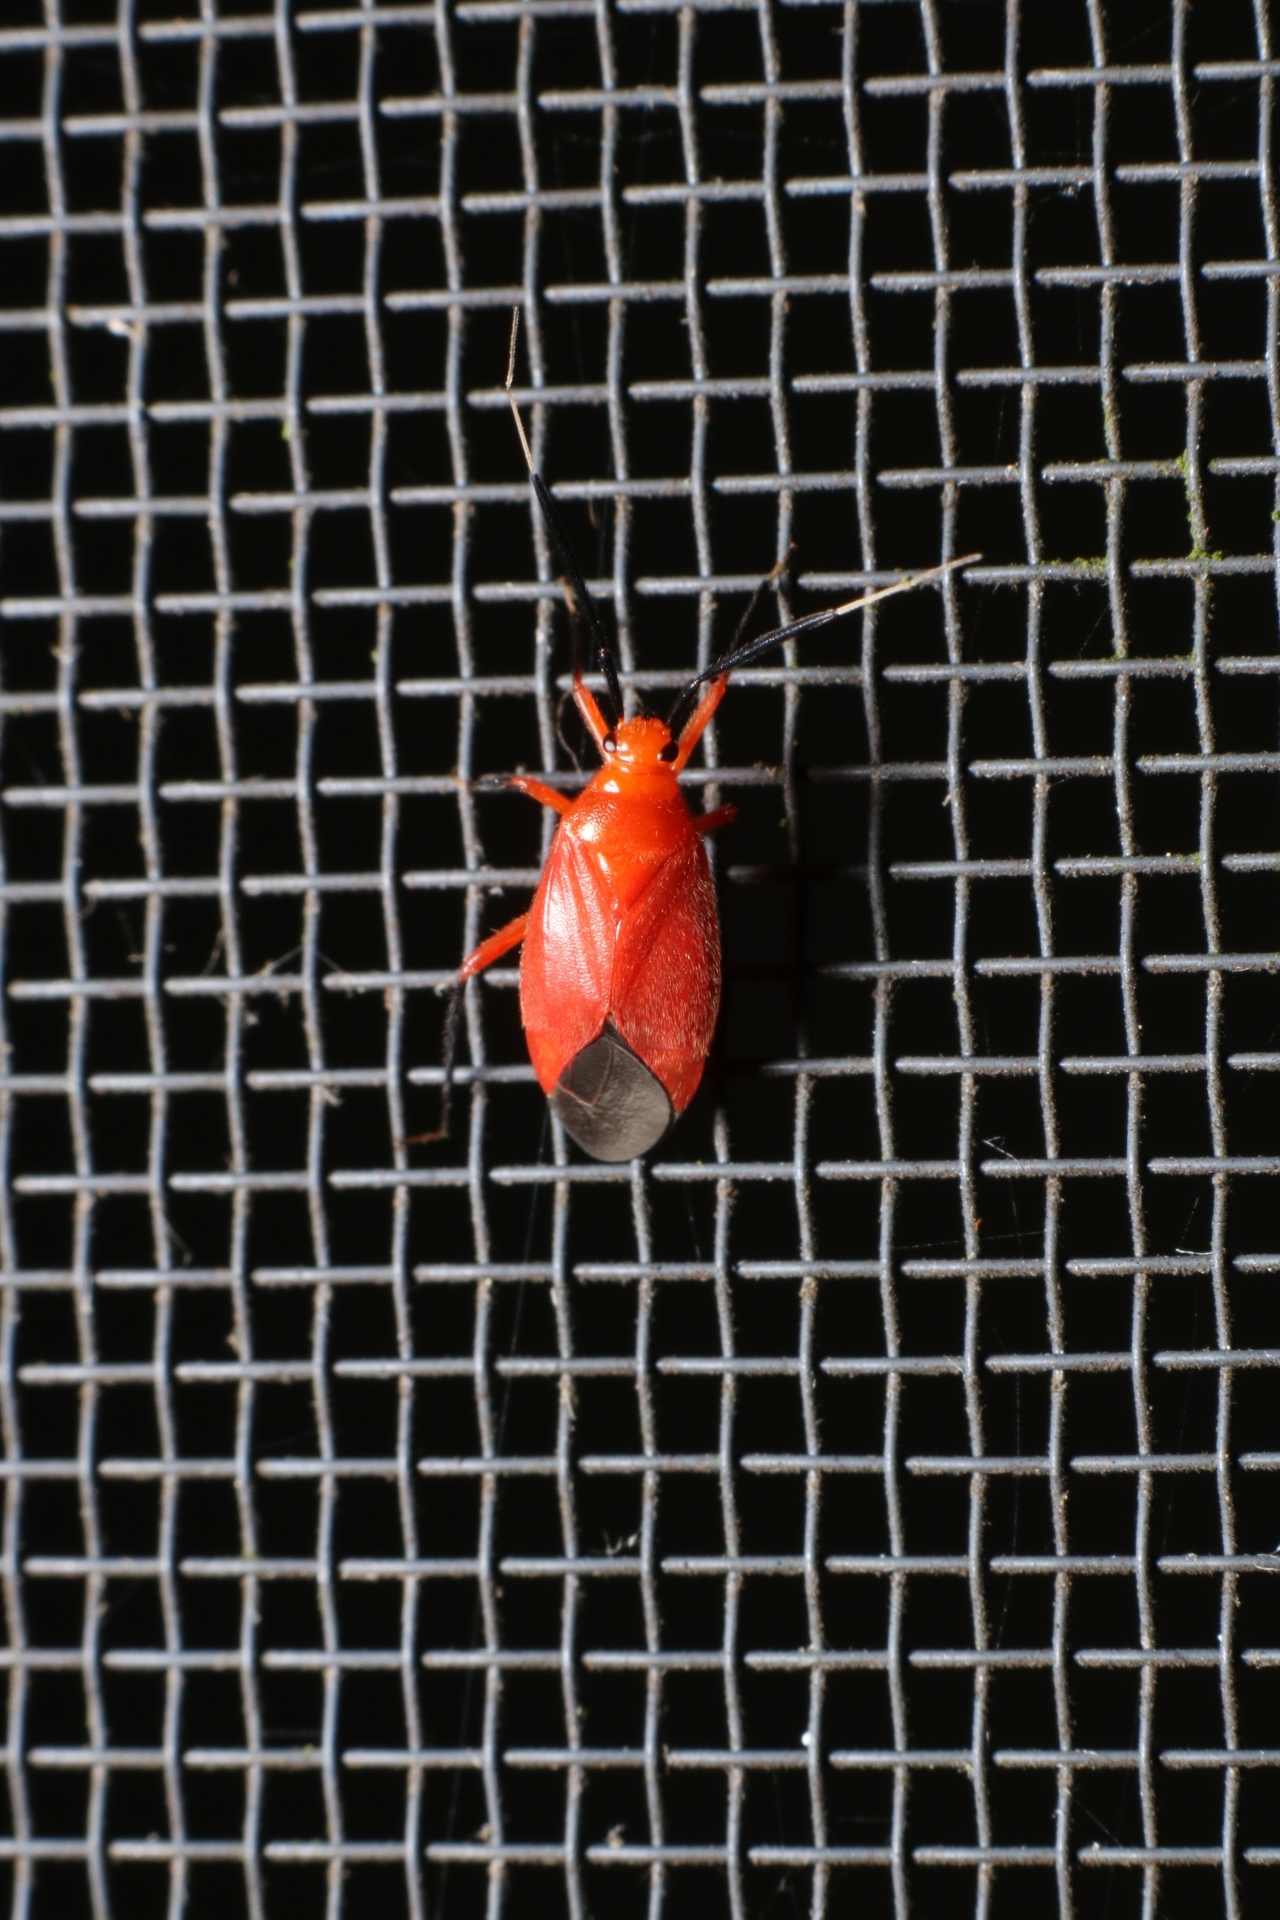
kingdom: Animalia
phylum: Arthropoda
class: Insecta
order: Hemiptera
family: Miridae
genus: Coccobaphes
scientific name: Coccobaphes frontifer
